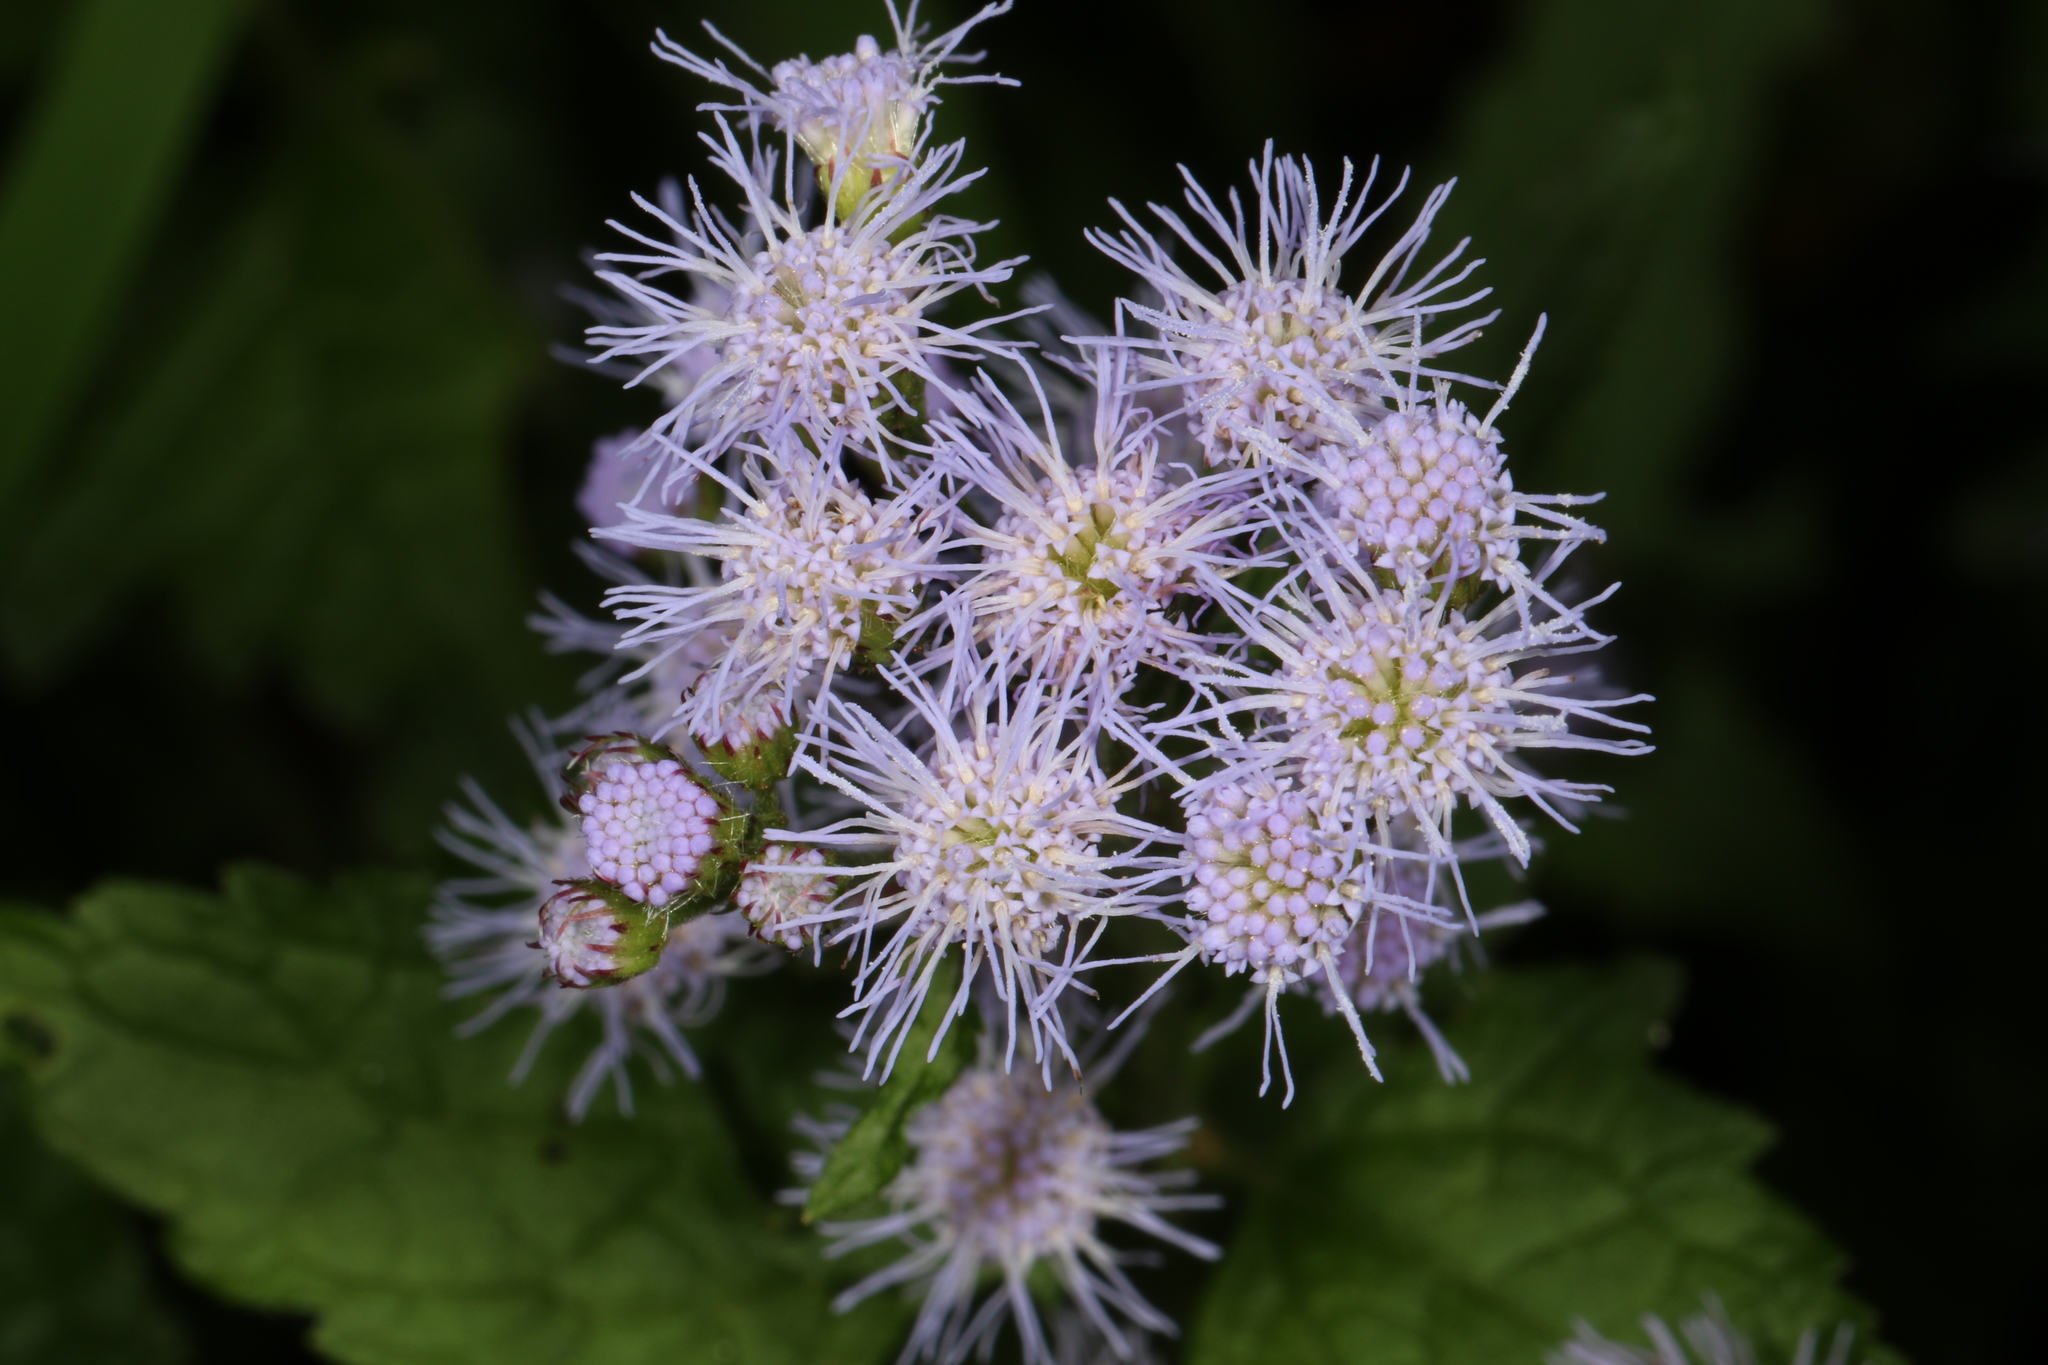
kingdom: Plantae
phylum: Tracheophyta
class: Magnoliopsida
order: Asterales
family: Asteraceae
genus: Conoclinium
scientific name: Conoclinium coelestinum
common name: Blue mistflower
